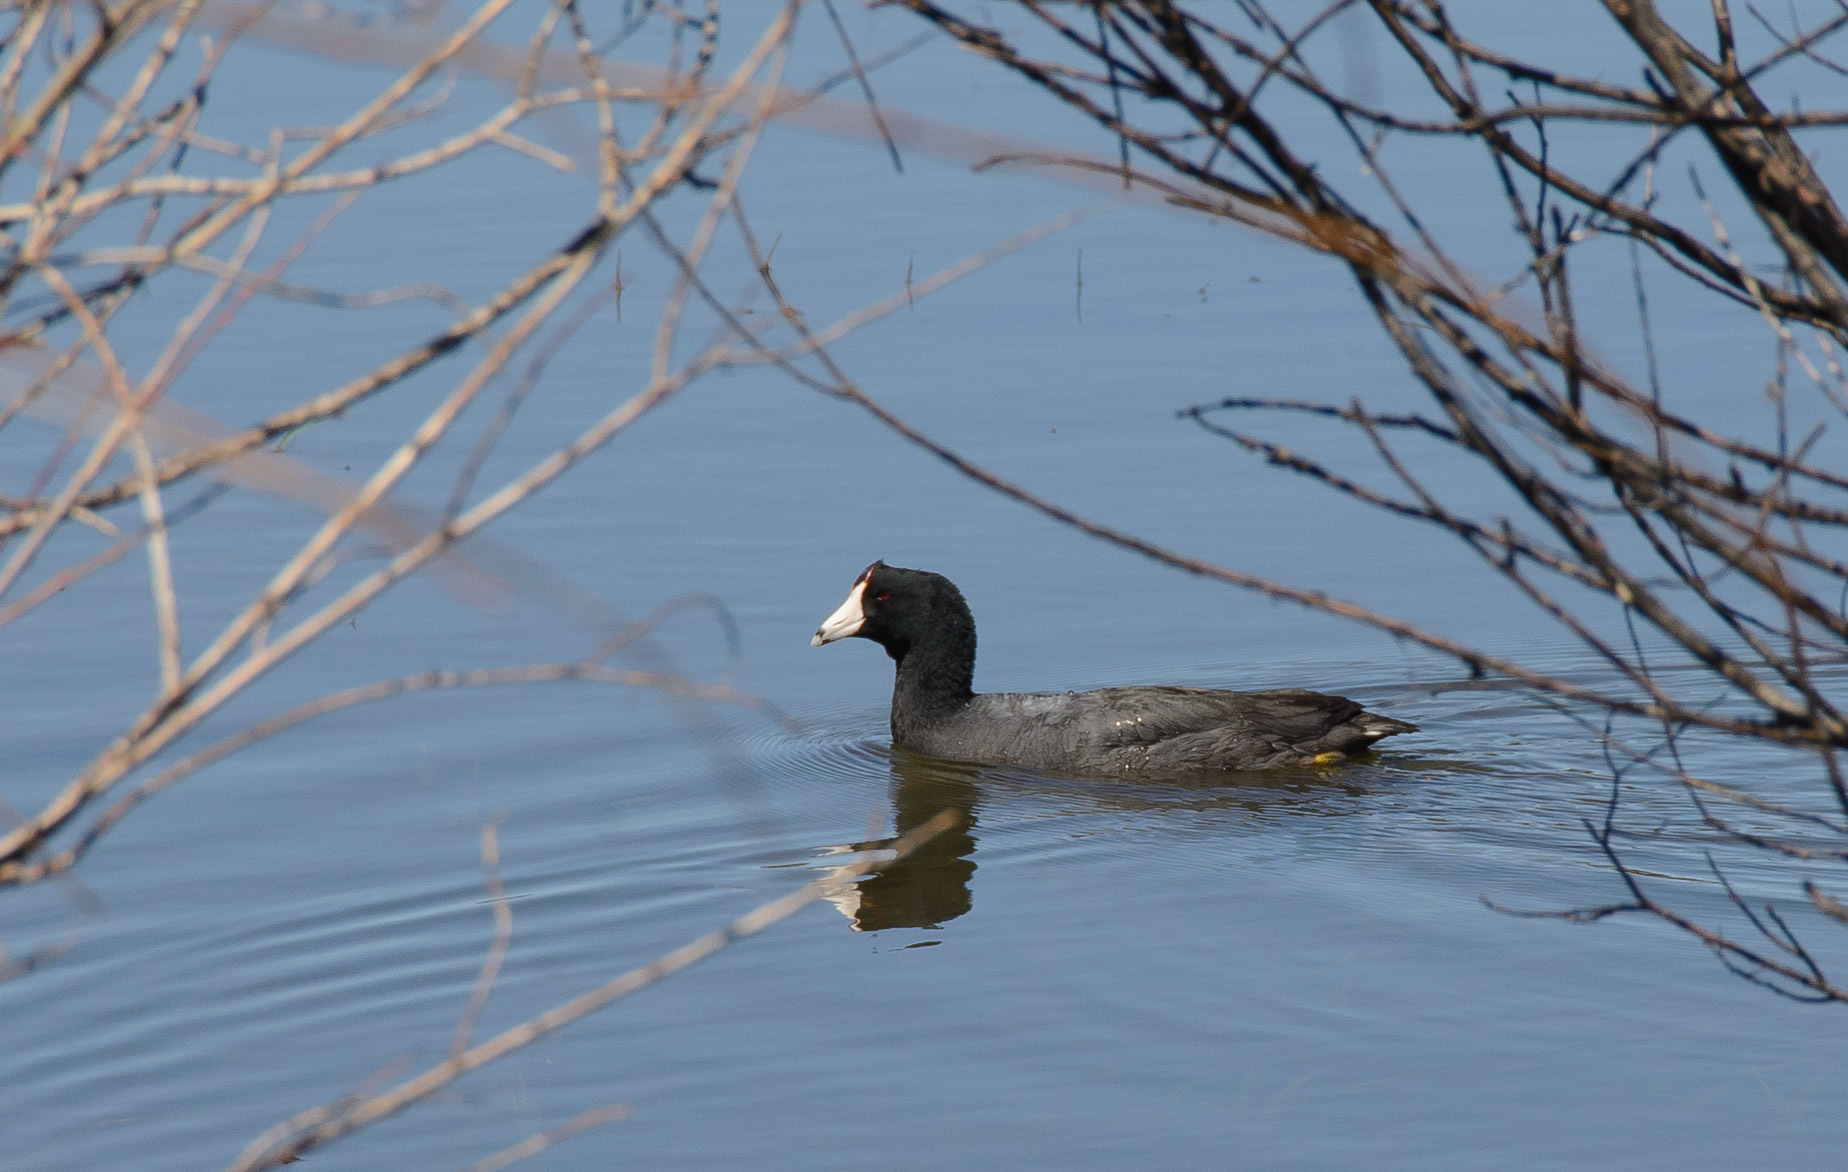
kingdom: Animalia
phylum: Chordata
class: Aves
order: Gruiformes
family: Rallidae
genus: Fulica
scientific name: Fulica americana
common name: American coot
